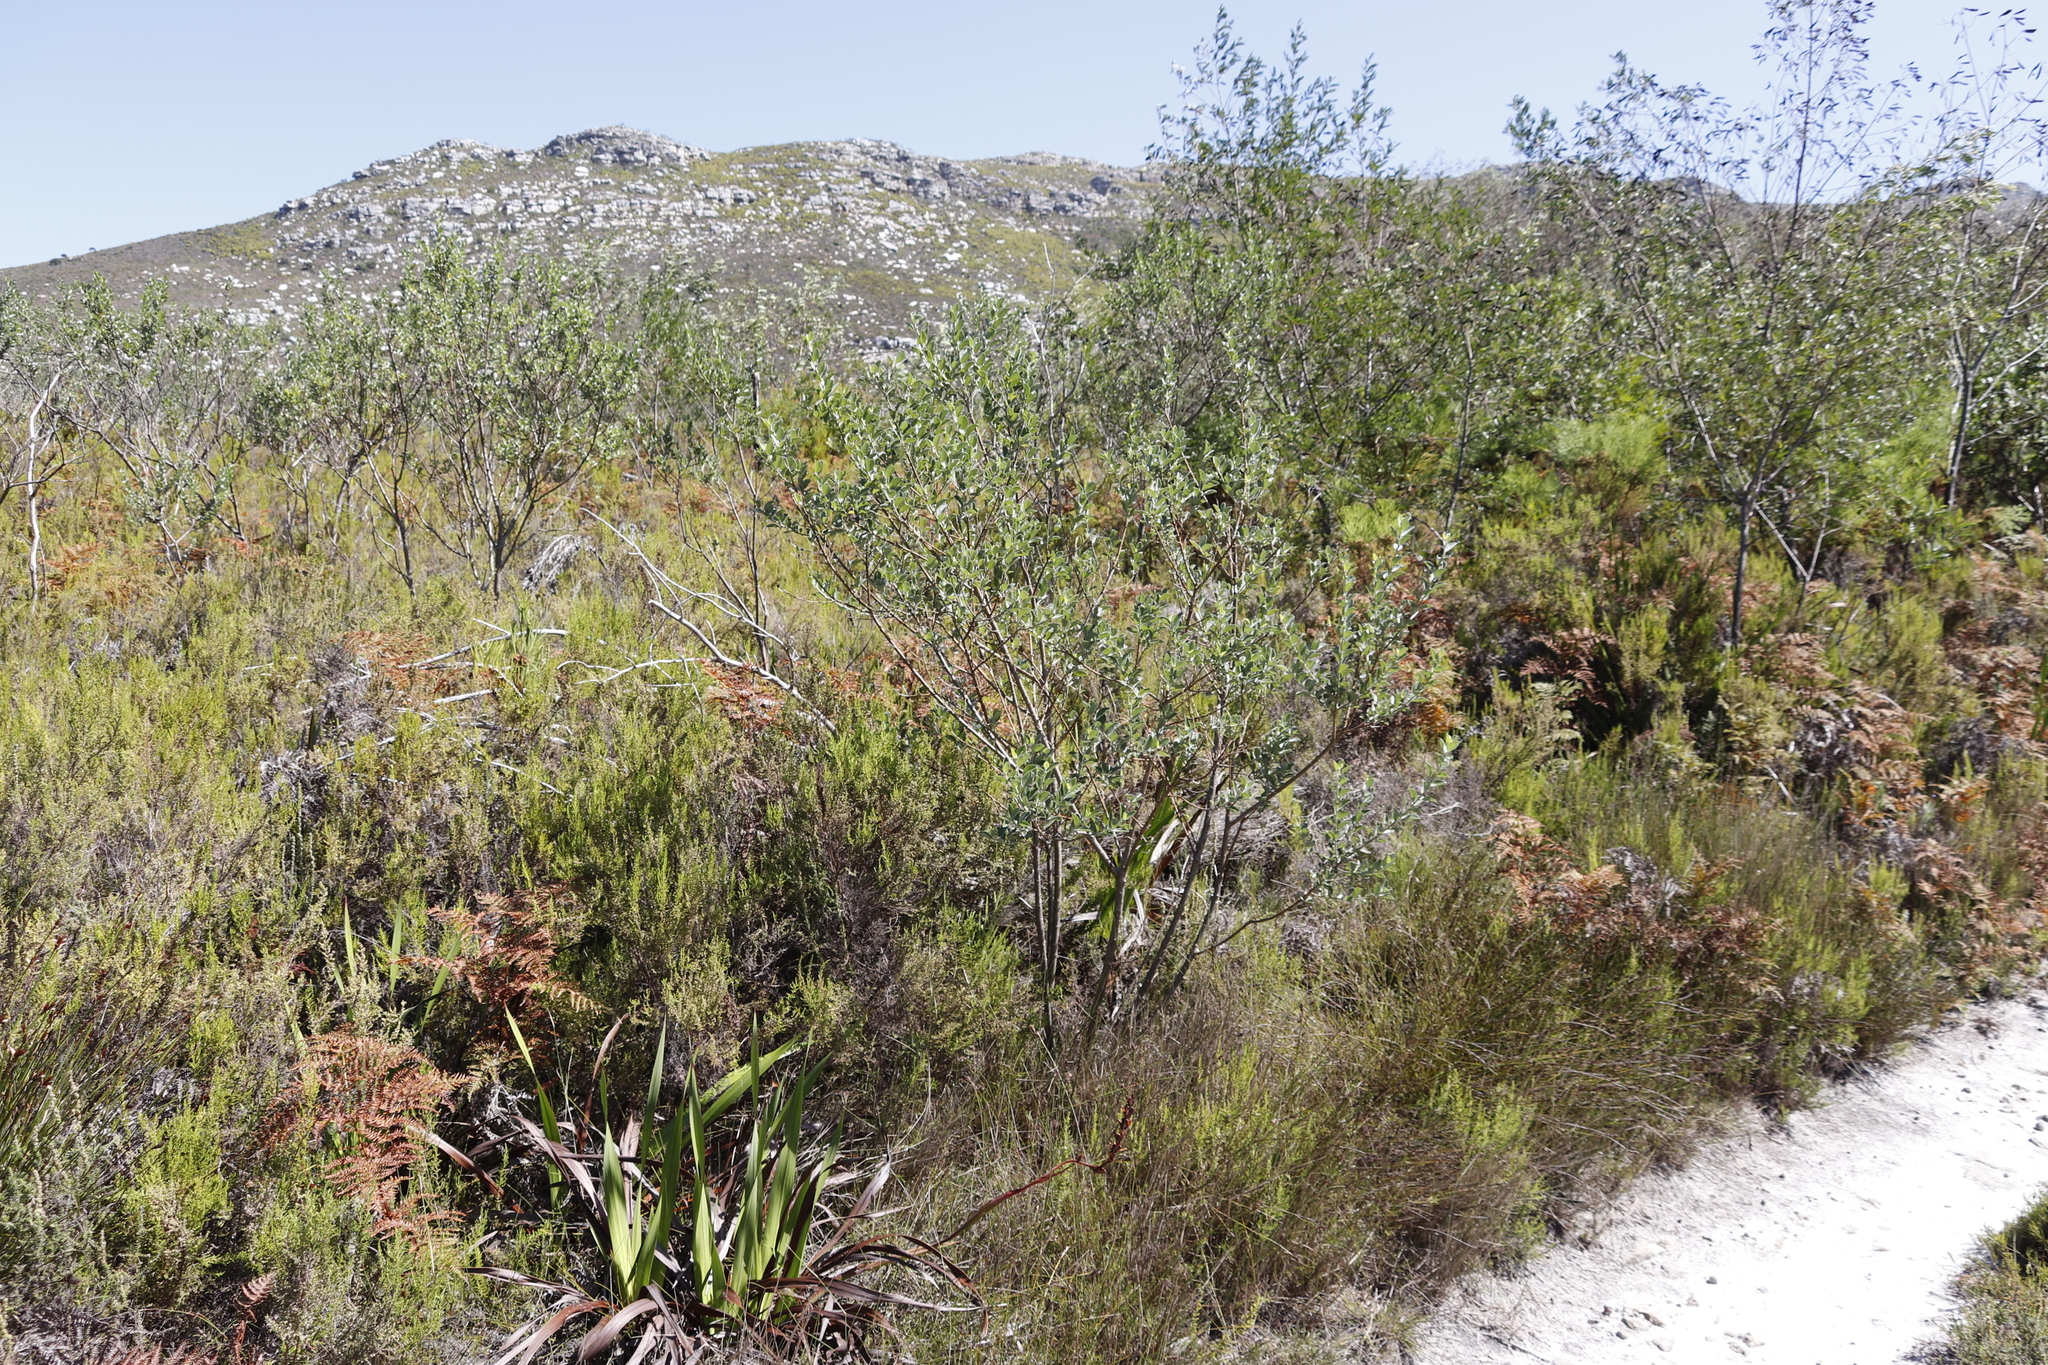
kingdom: Plantae
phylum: Tracheophyta
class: Magnoliopsida
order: Fabales
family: Fabaceae
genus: Podalyria
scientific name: Podalyria calyptrata
